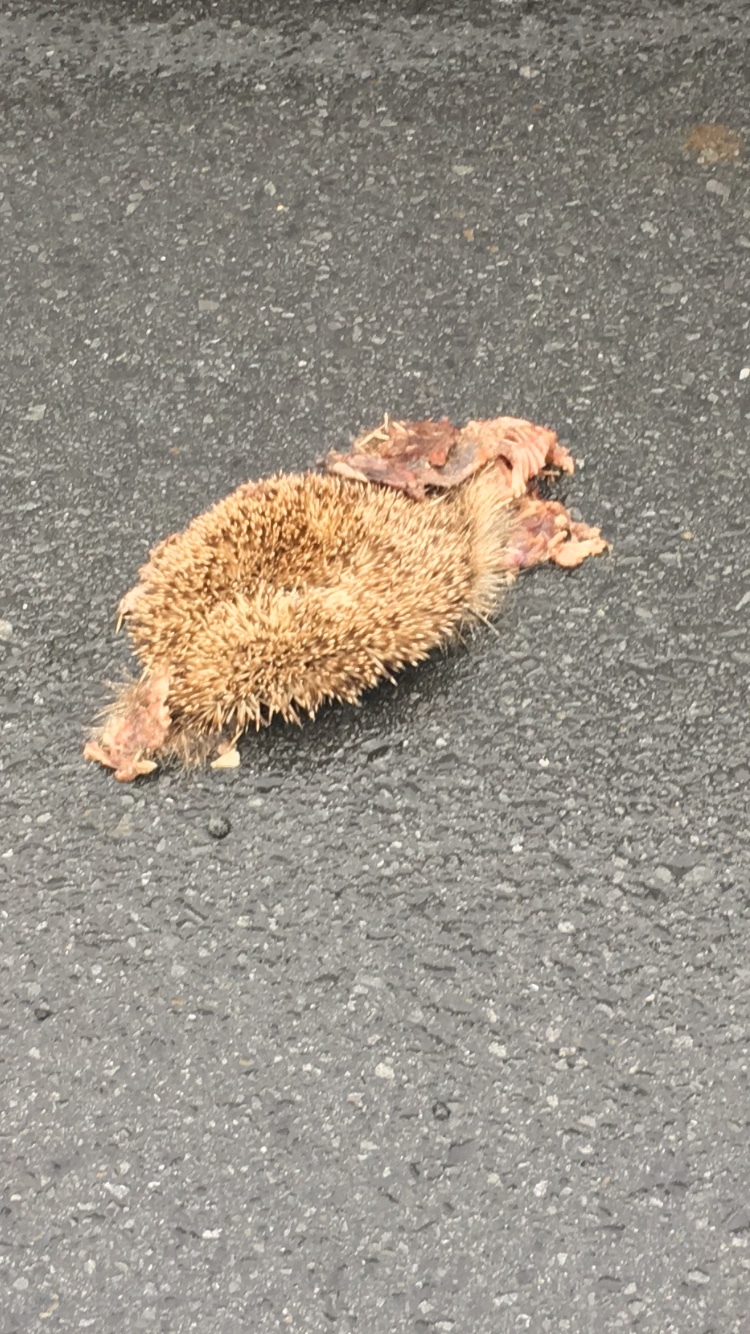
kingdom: Animalia
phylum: Chordata
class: Mammalia
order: Erinaceomorpha
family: Erinaceidae
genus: Erinaceus
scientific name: Erinaceus europaeus
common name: West european hedgehog
